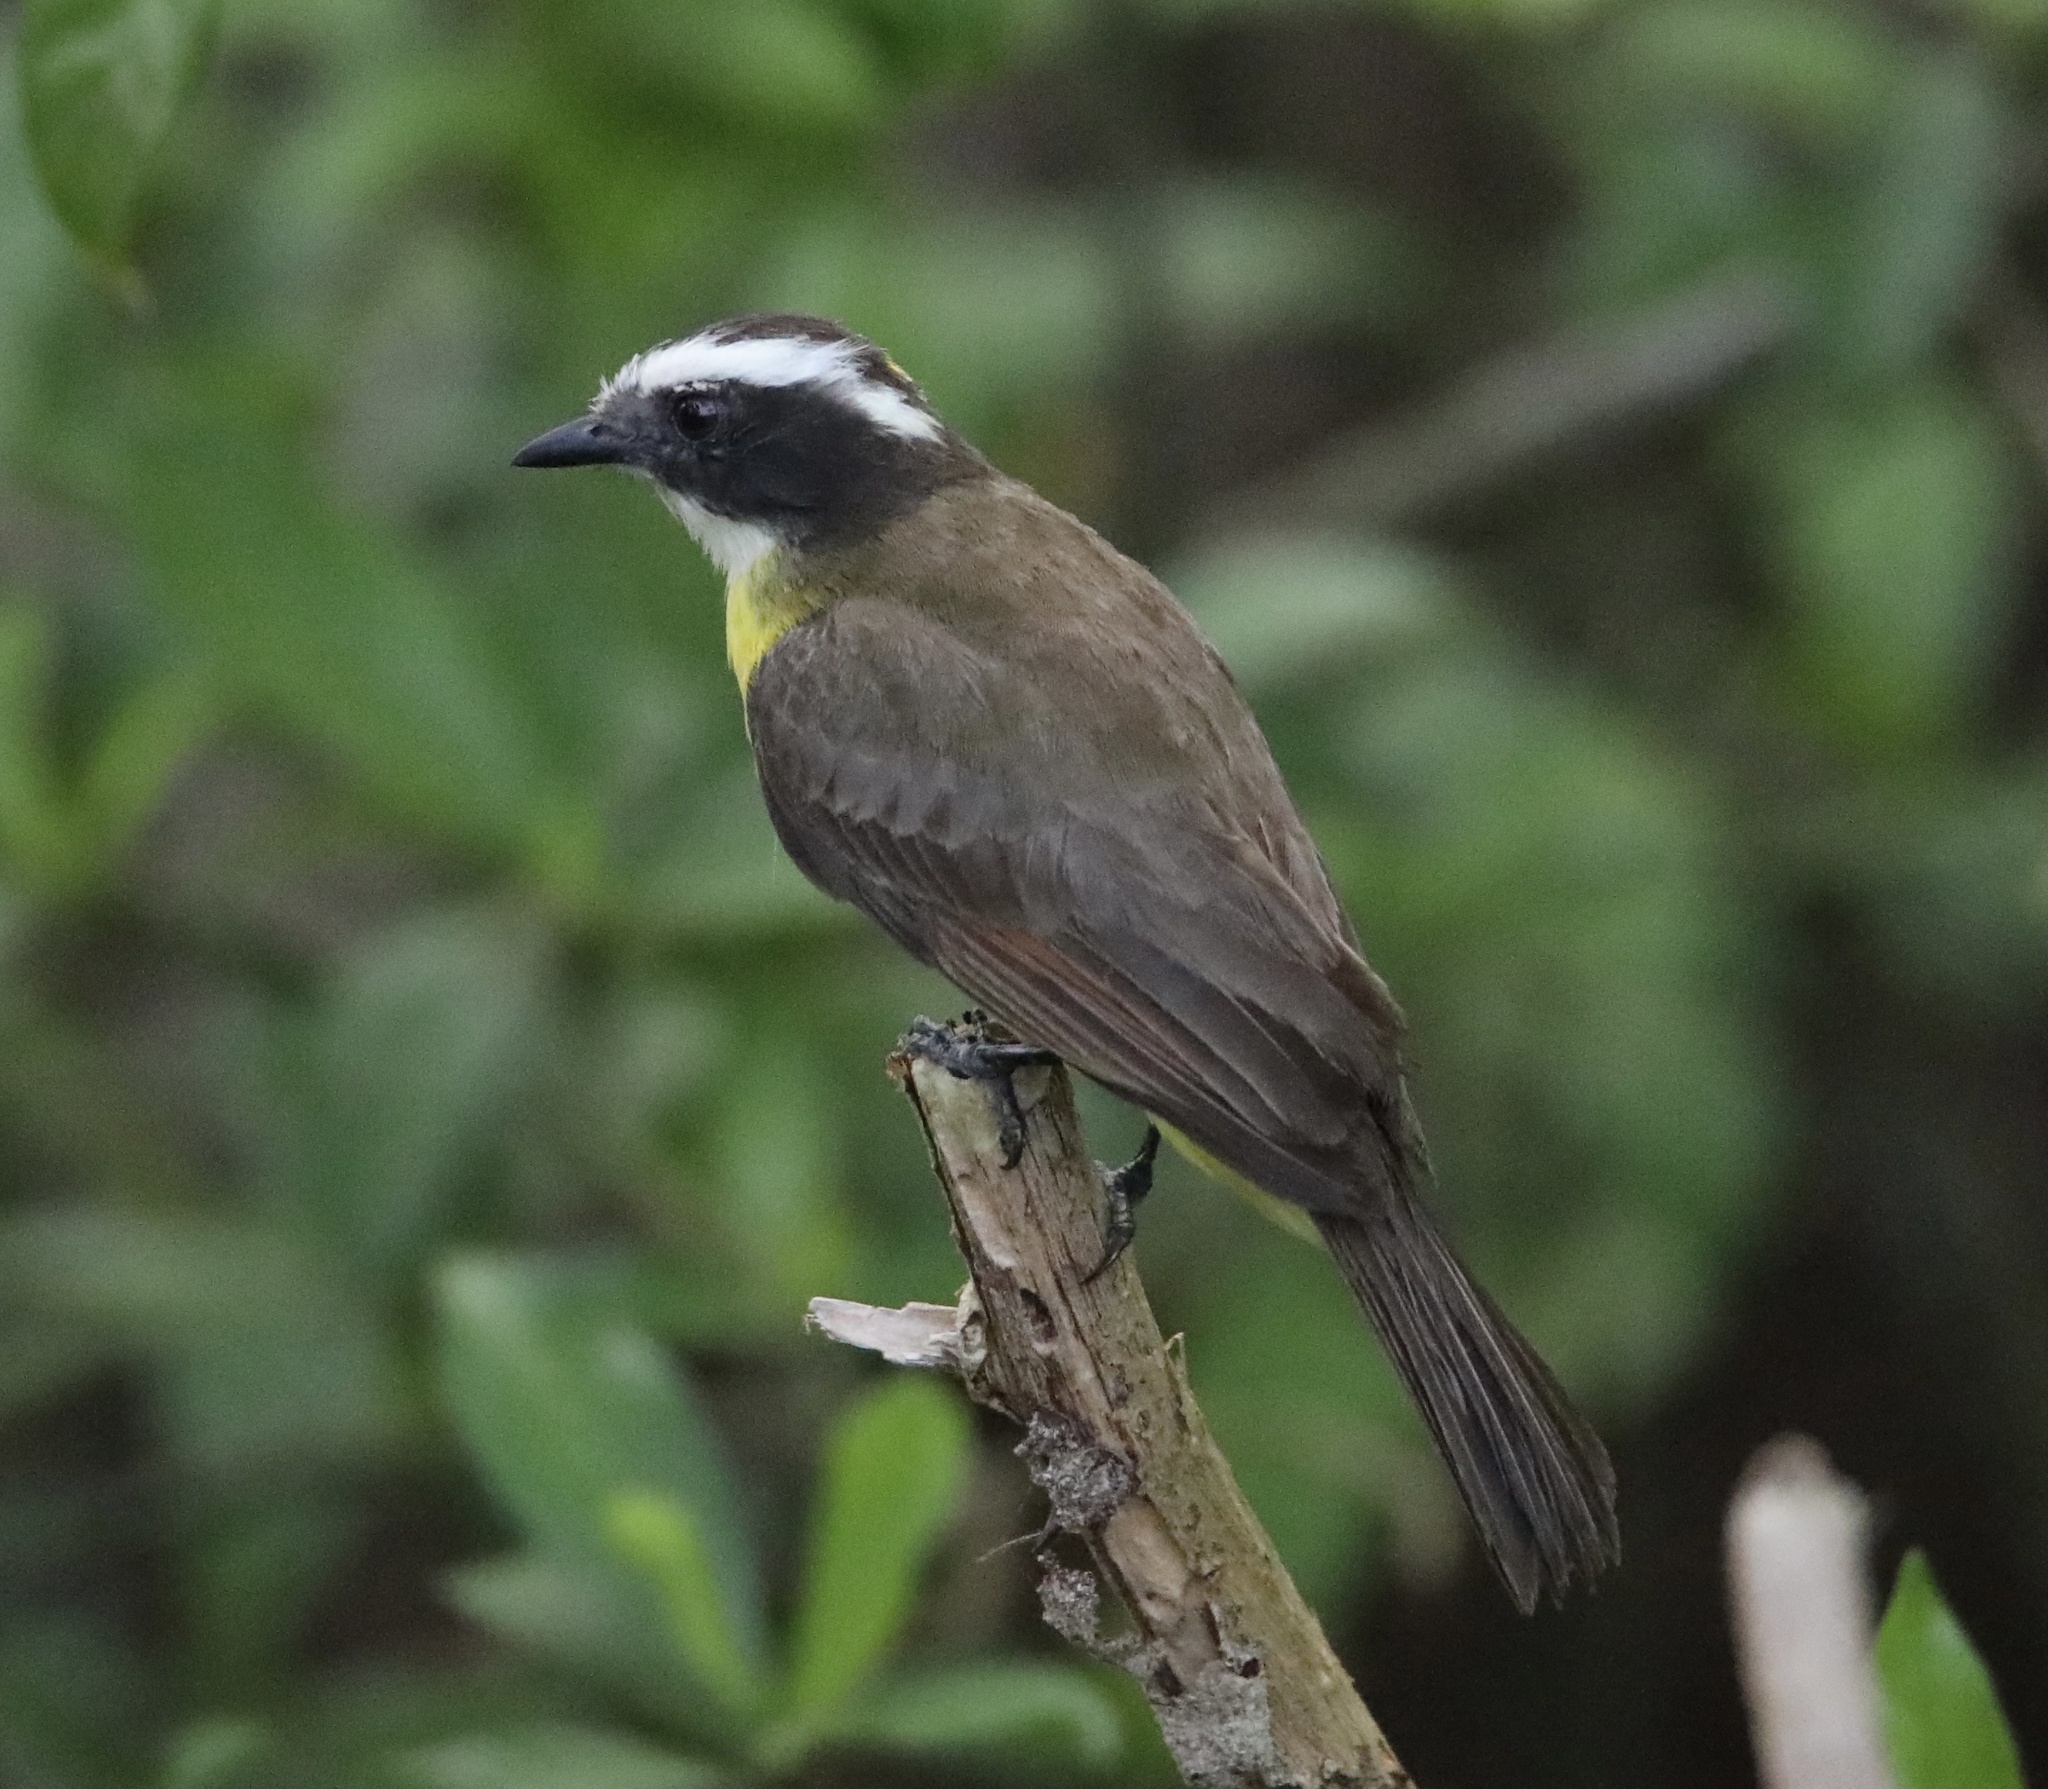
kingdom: Animalia
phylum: Chordata
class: Aves
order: Passeriformes
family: Tyrannidae
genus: Myiozetetes
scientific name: Myiozetetes cayanensis
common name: Rusty-margined flycatcher
